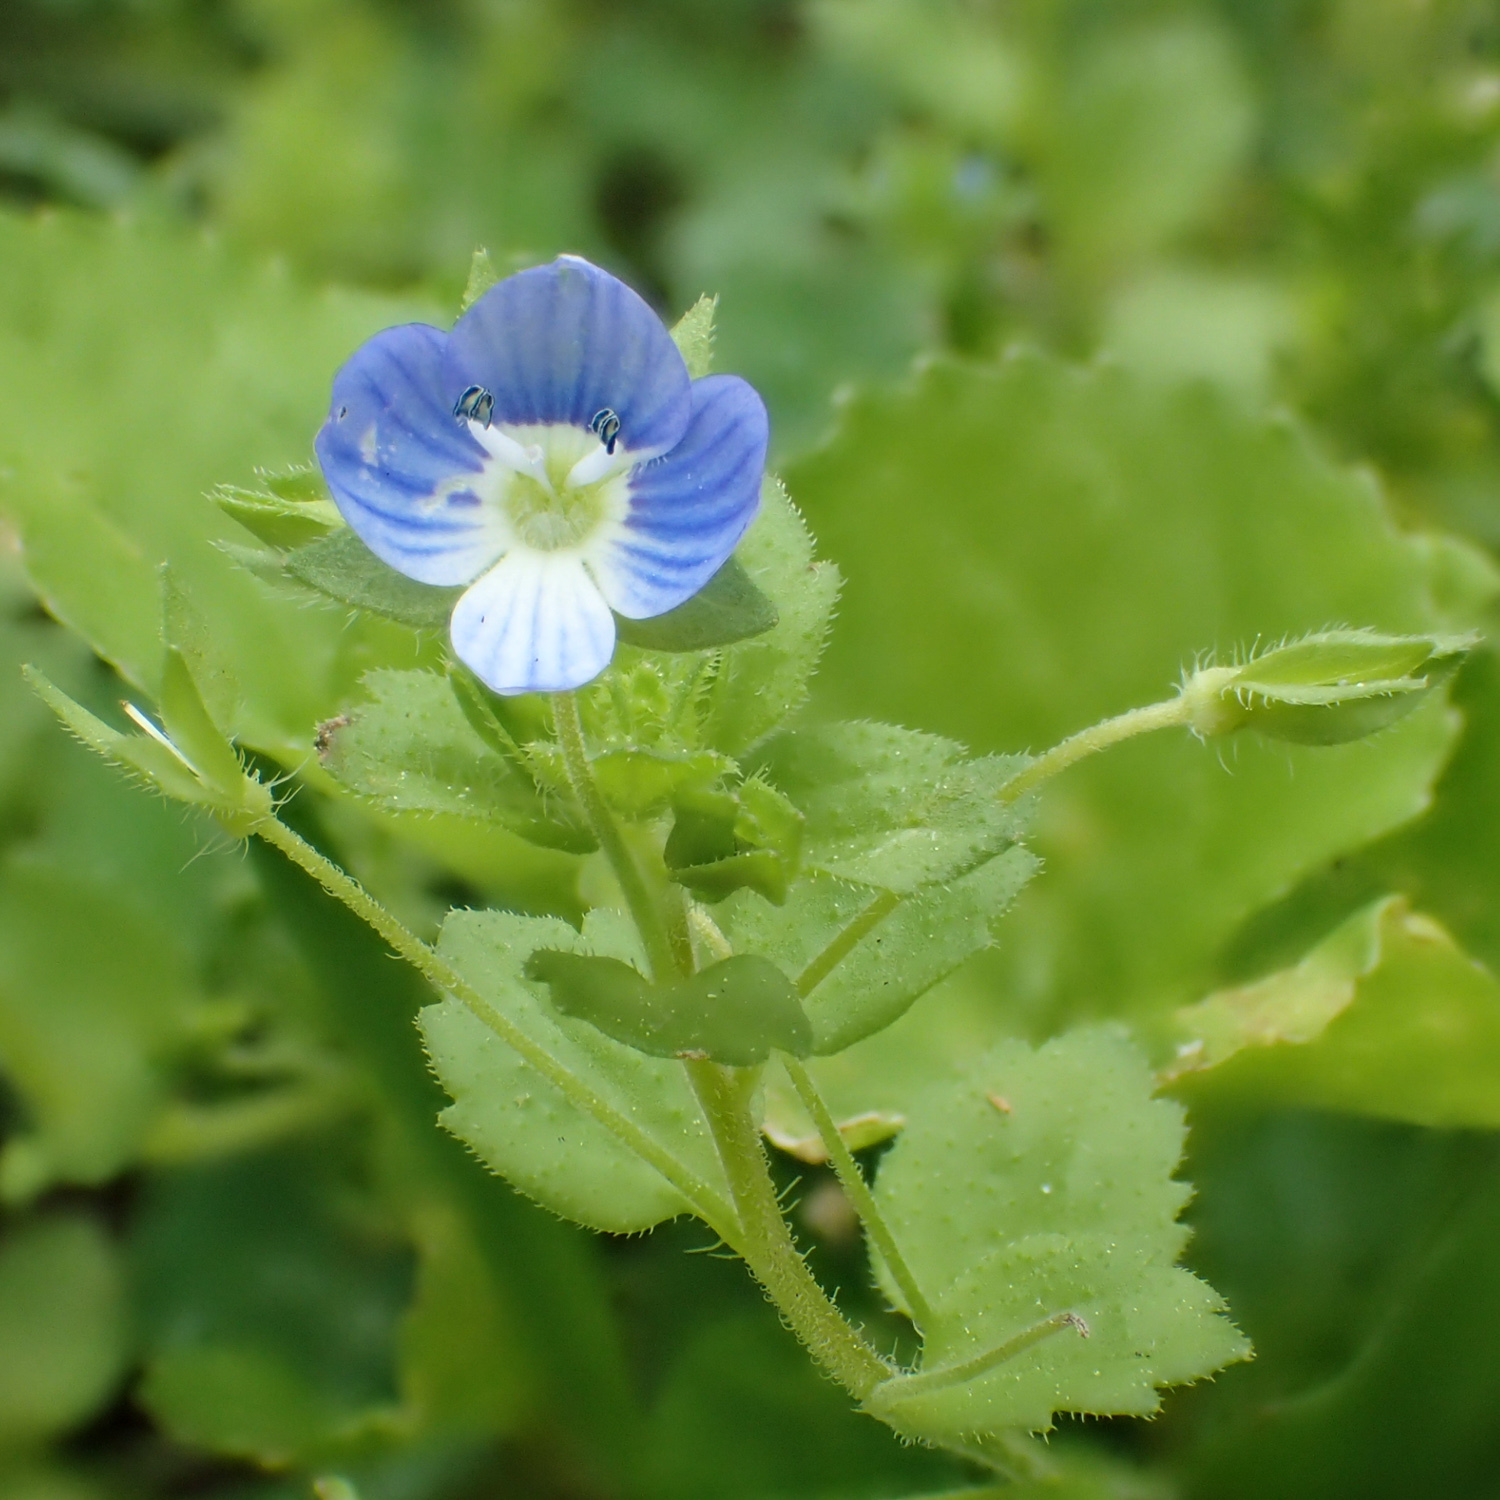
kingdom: Plantae
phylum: Tracheophyta
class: Magnoliopsida
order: Lamiales
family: Plantaginaceae
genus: Veronica
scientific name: Veronica persica
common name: Common field-speedwell
